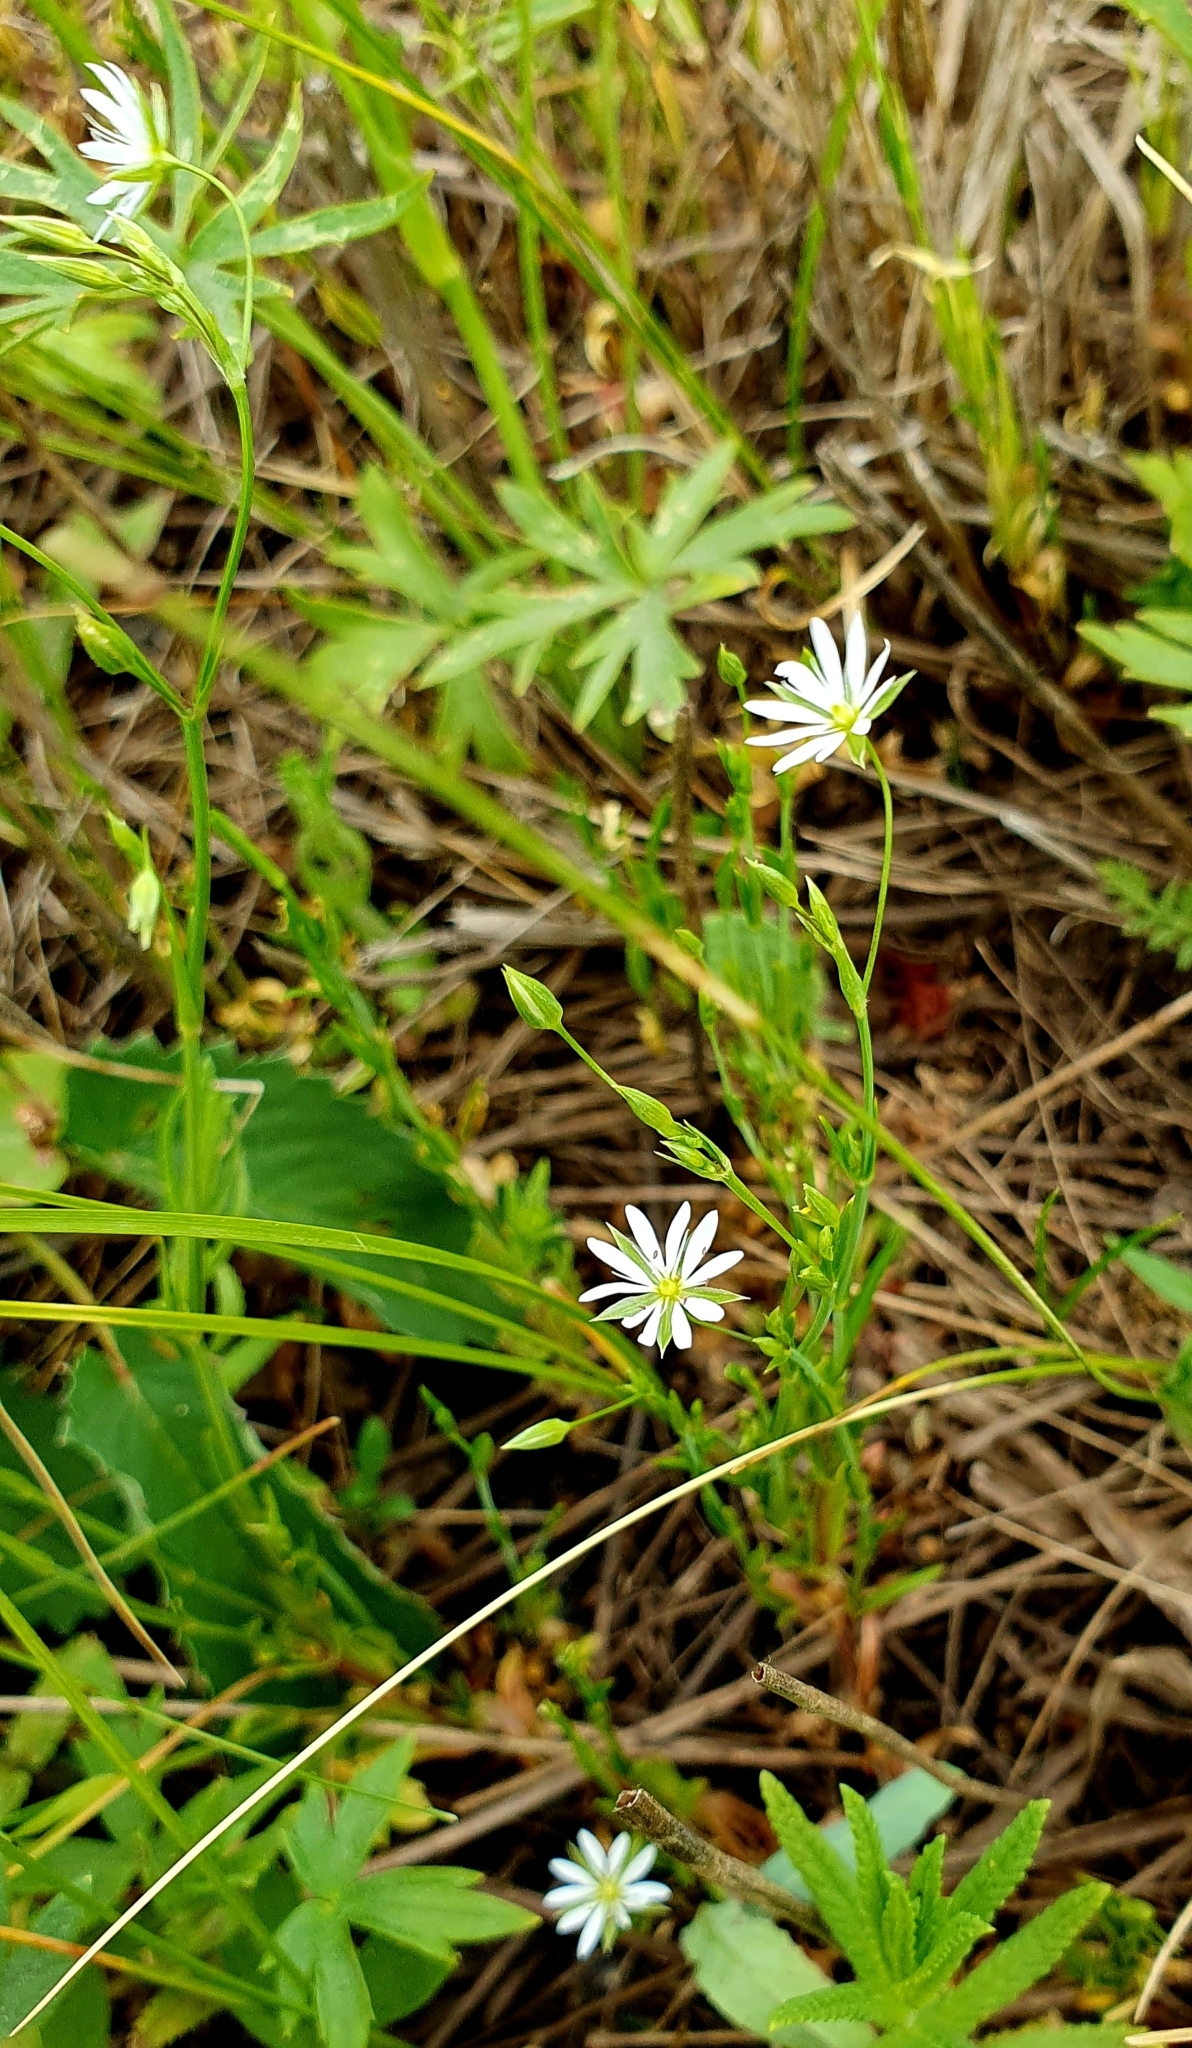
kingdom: Plantae
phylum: Tracheophyta
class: Magnoliopsida
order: Caryophyllales
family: Caryophyllaceae
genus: Stellaria
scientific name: Stellaria graminea
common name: Grass-like starwort
